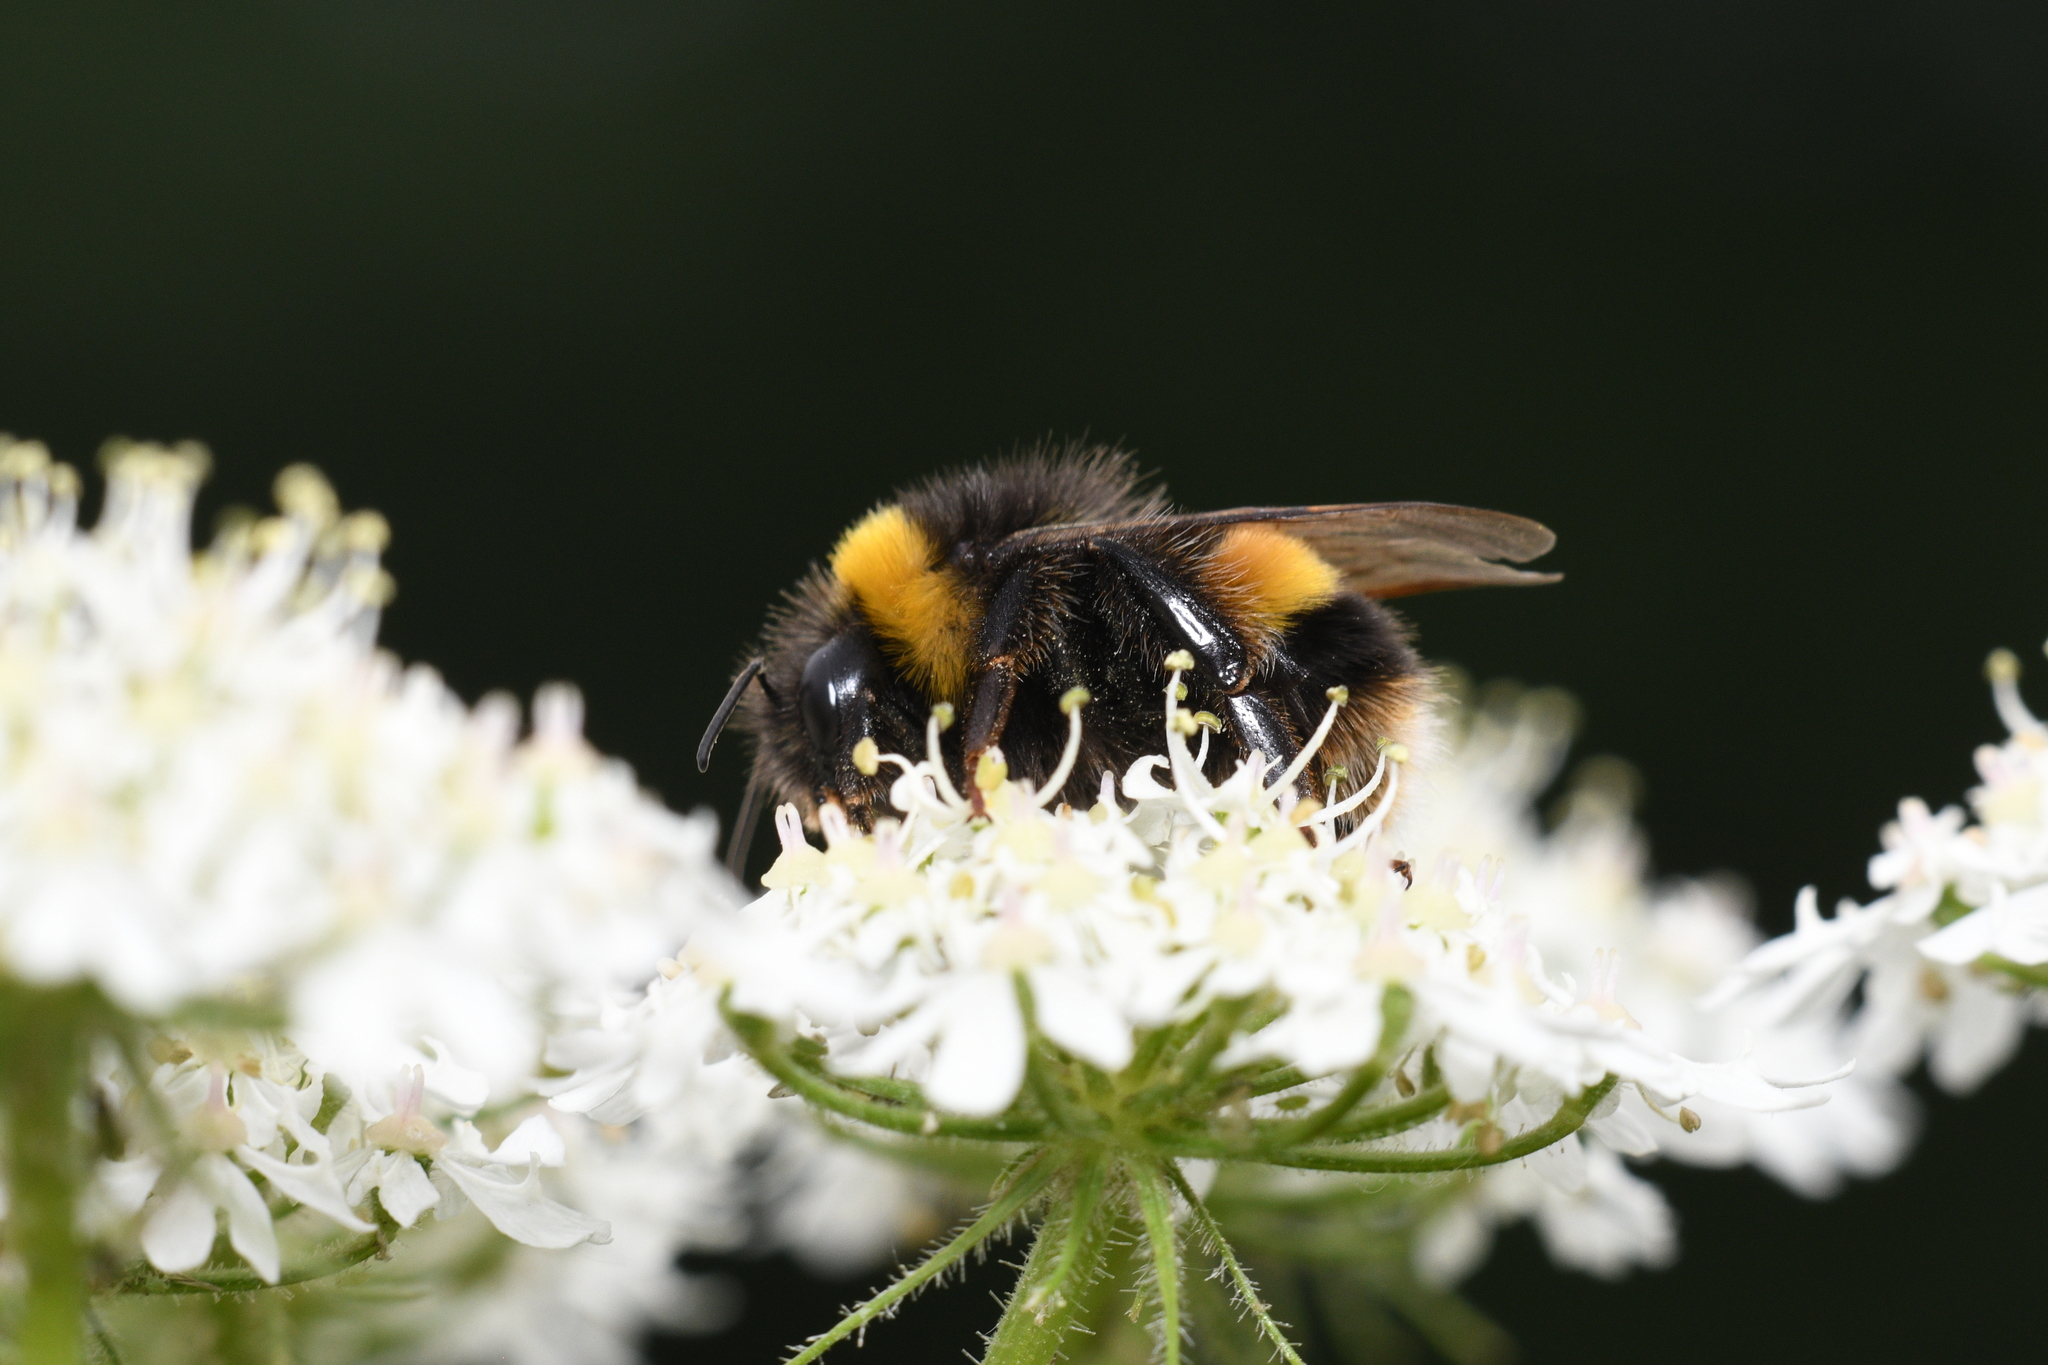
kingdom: Animalia
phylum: Arthropoda
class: Insecta
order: Hymenoptera
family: Apidae
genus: Bombus
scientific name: Bombus terrestris
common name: Buff-tailed bumblebee
